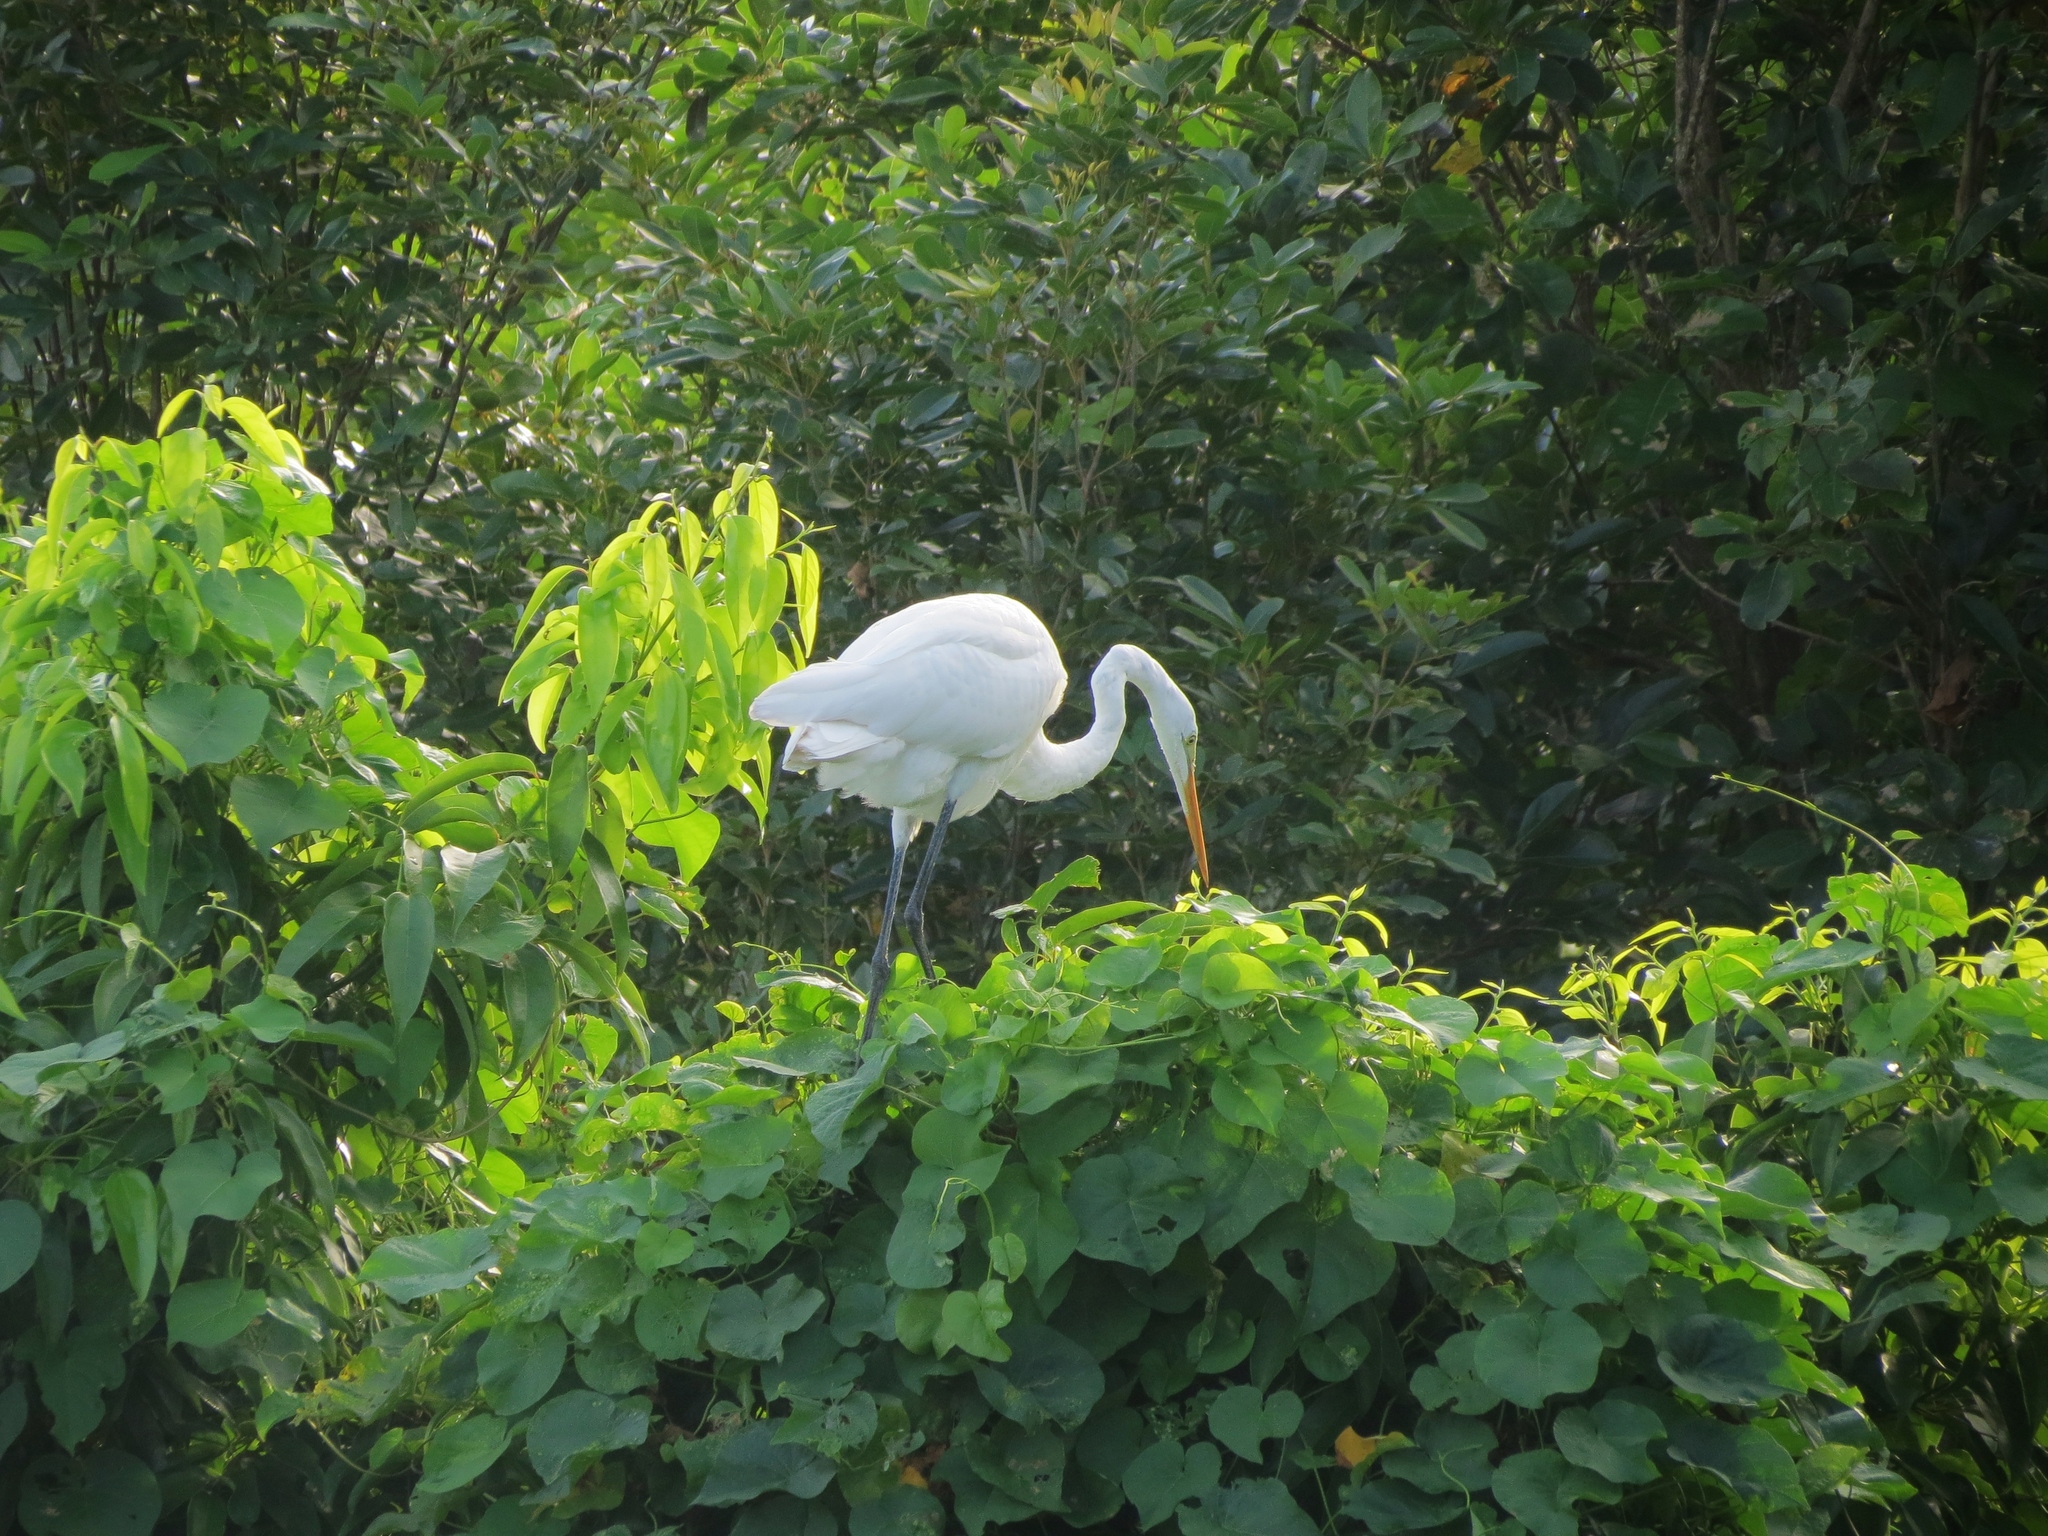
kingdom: Animalia
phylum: Chordata
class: Aves
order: Pelecaniformes
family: Ardeidae
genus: Ardea
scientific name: Ardea alba
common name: Great egret
